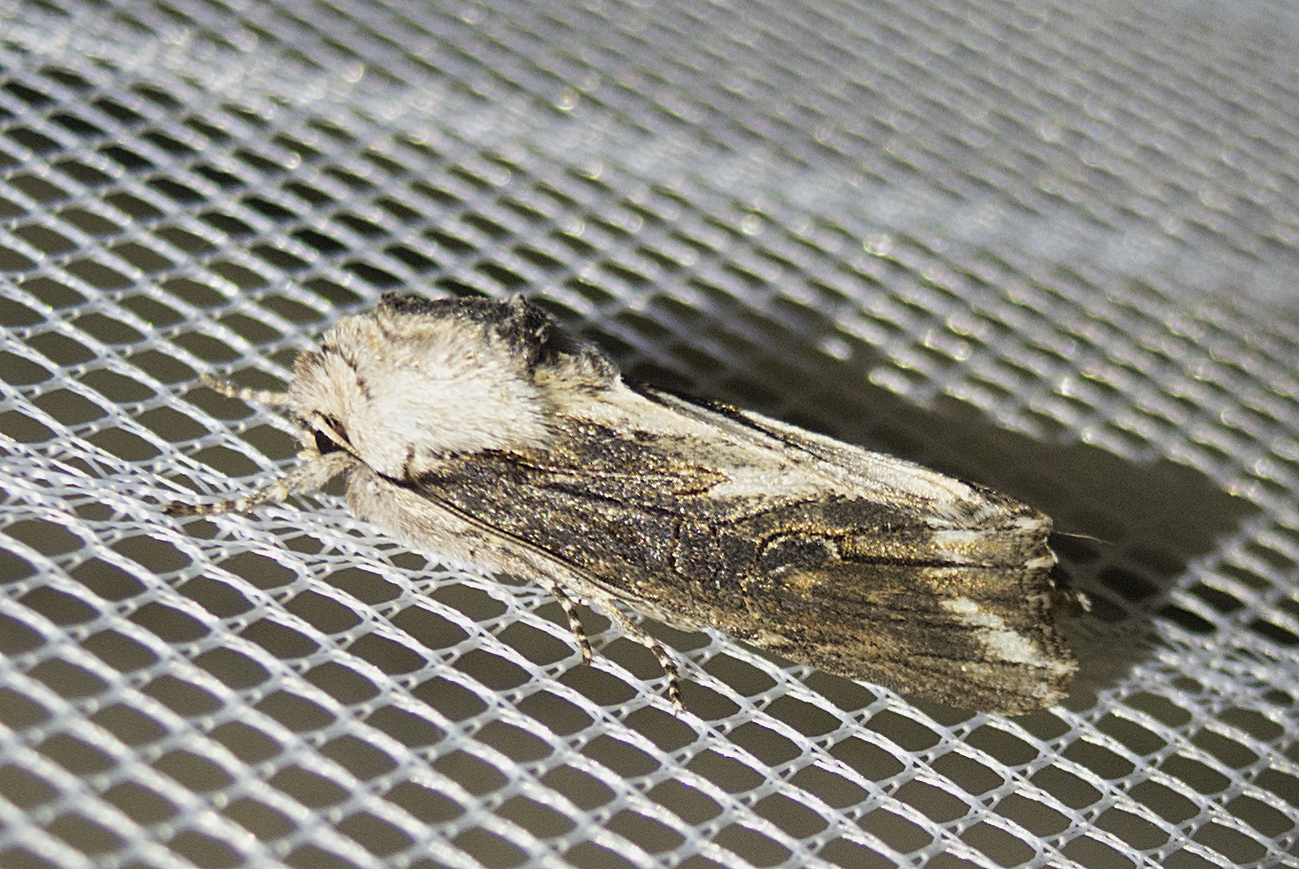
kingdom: Animalia
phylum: Arthropoda
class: Insecta
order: Lepidoptera
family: Noctuidae
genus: Egira
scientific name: Egira conspicillaris
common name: Silver cloud
